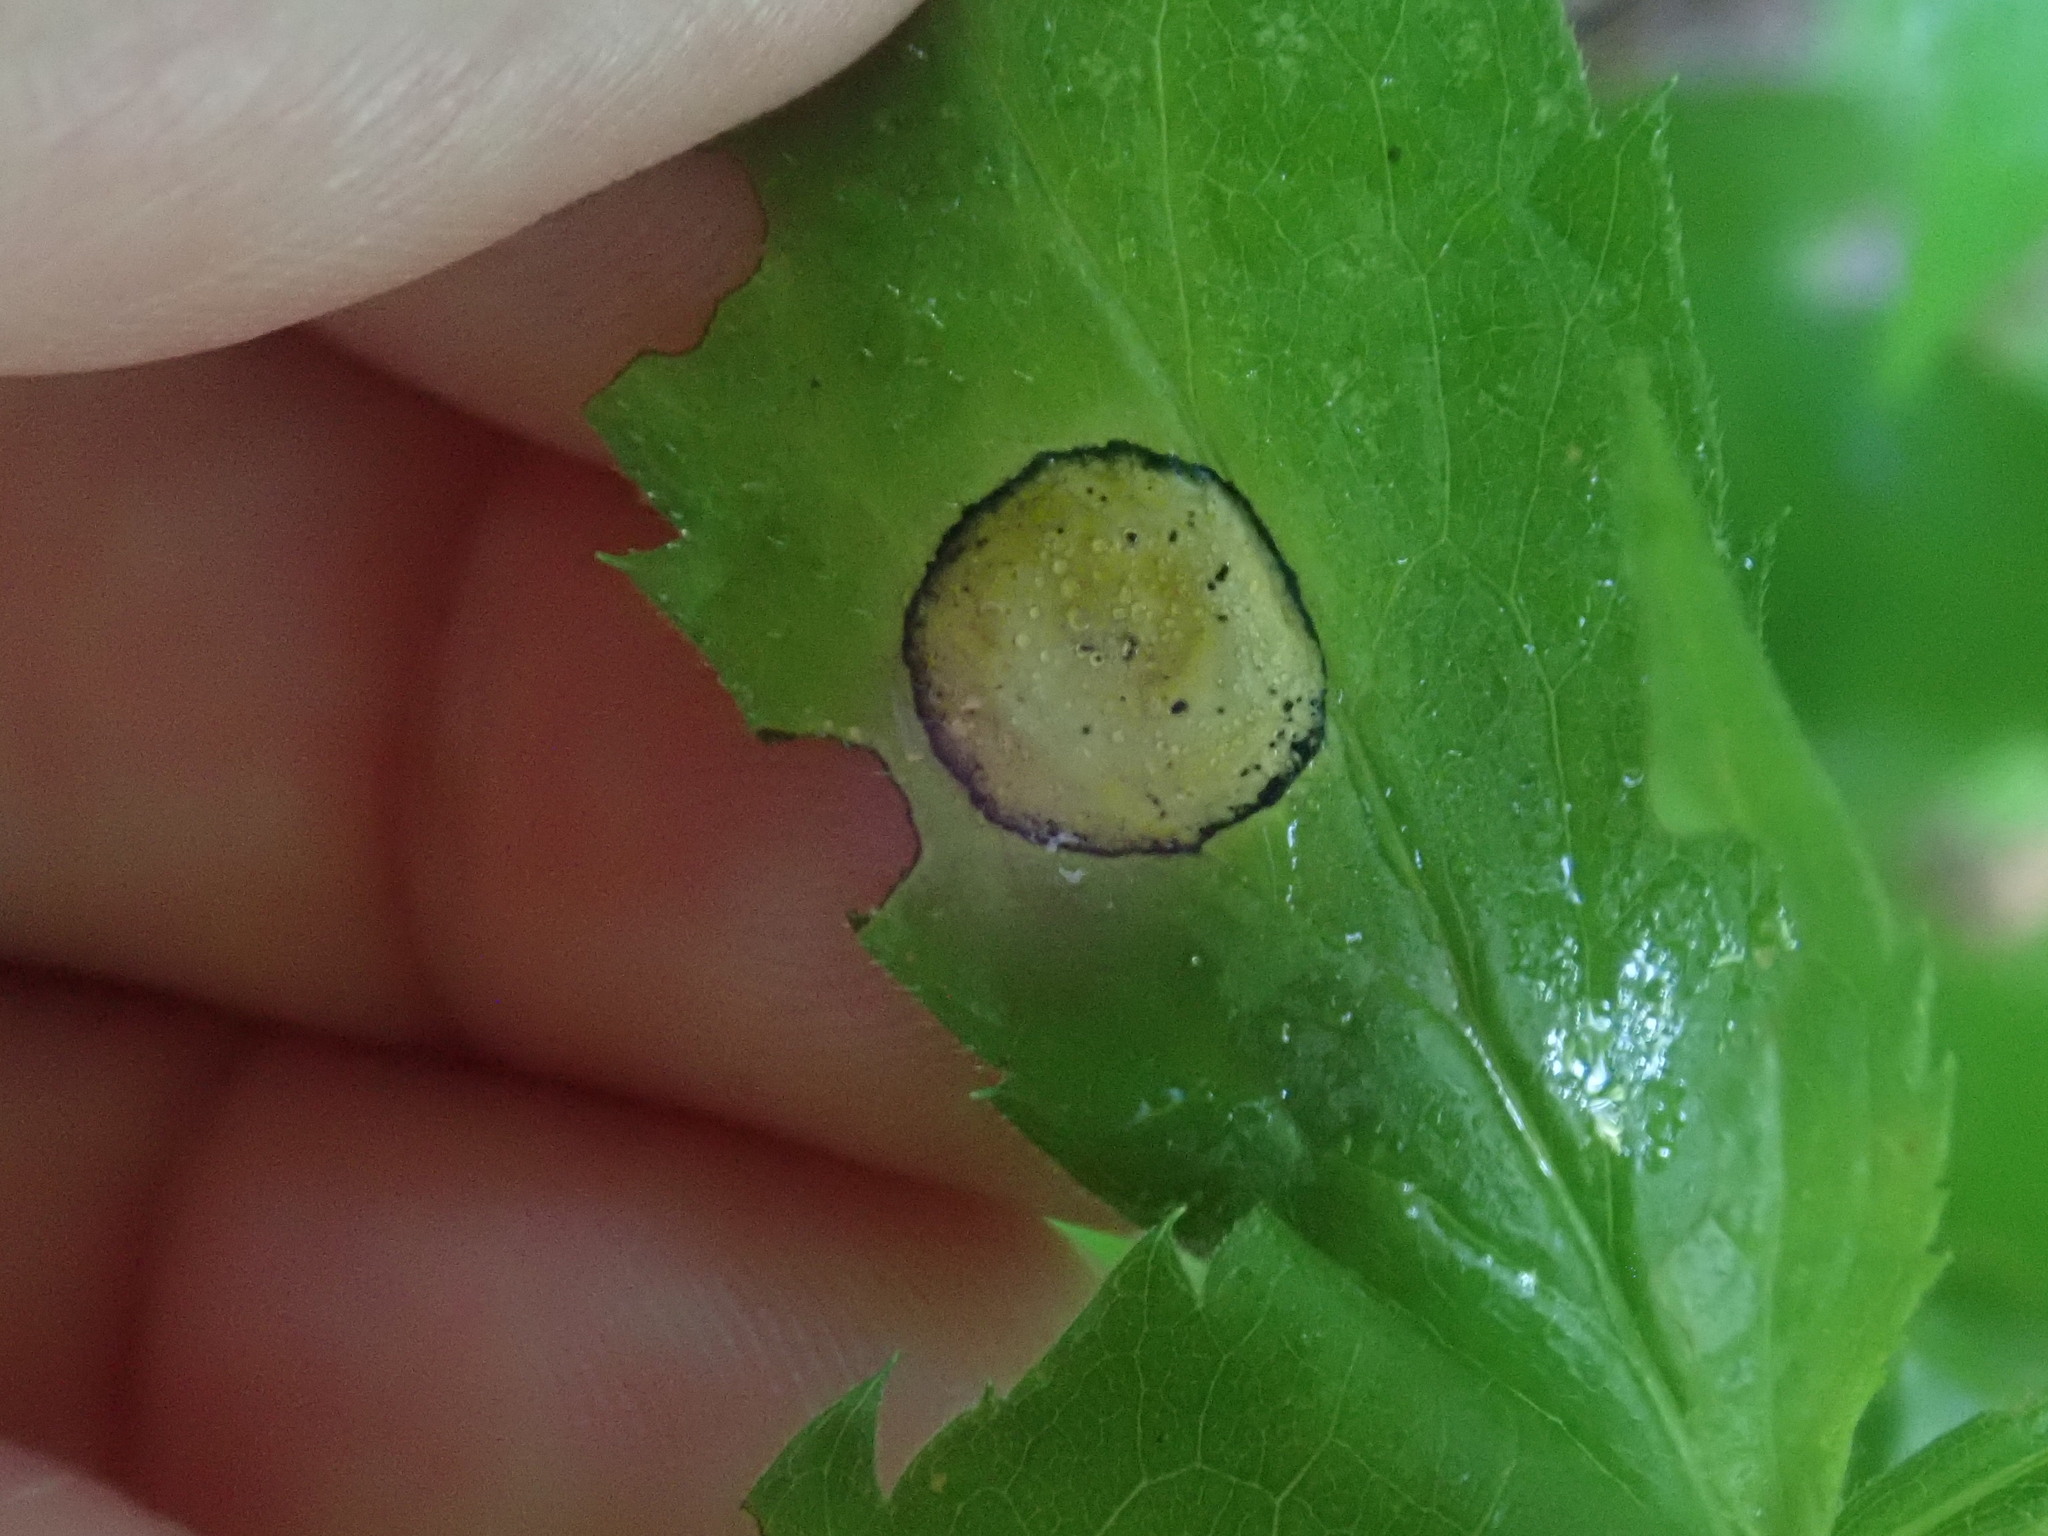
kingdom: Animalia
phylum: Arthropoda
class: Insecta
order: Diptera
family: Cecidomyiidae
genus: Asteromyia
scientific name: Asteromyia carbonifera
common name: Carbonifera goldenrod gall midge
